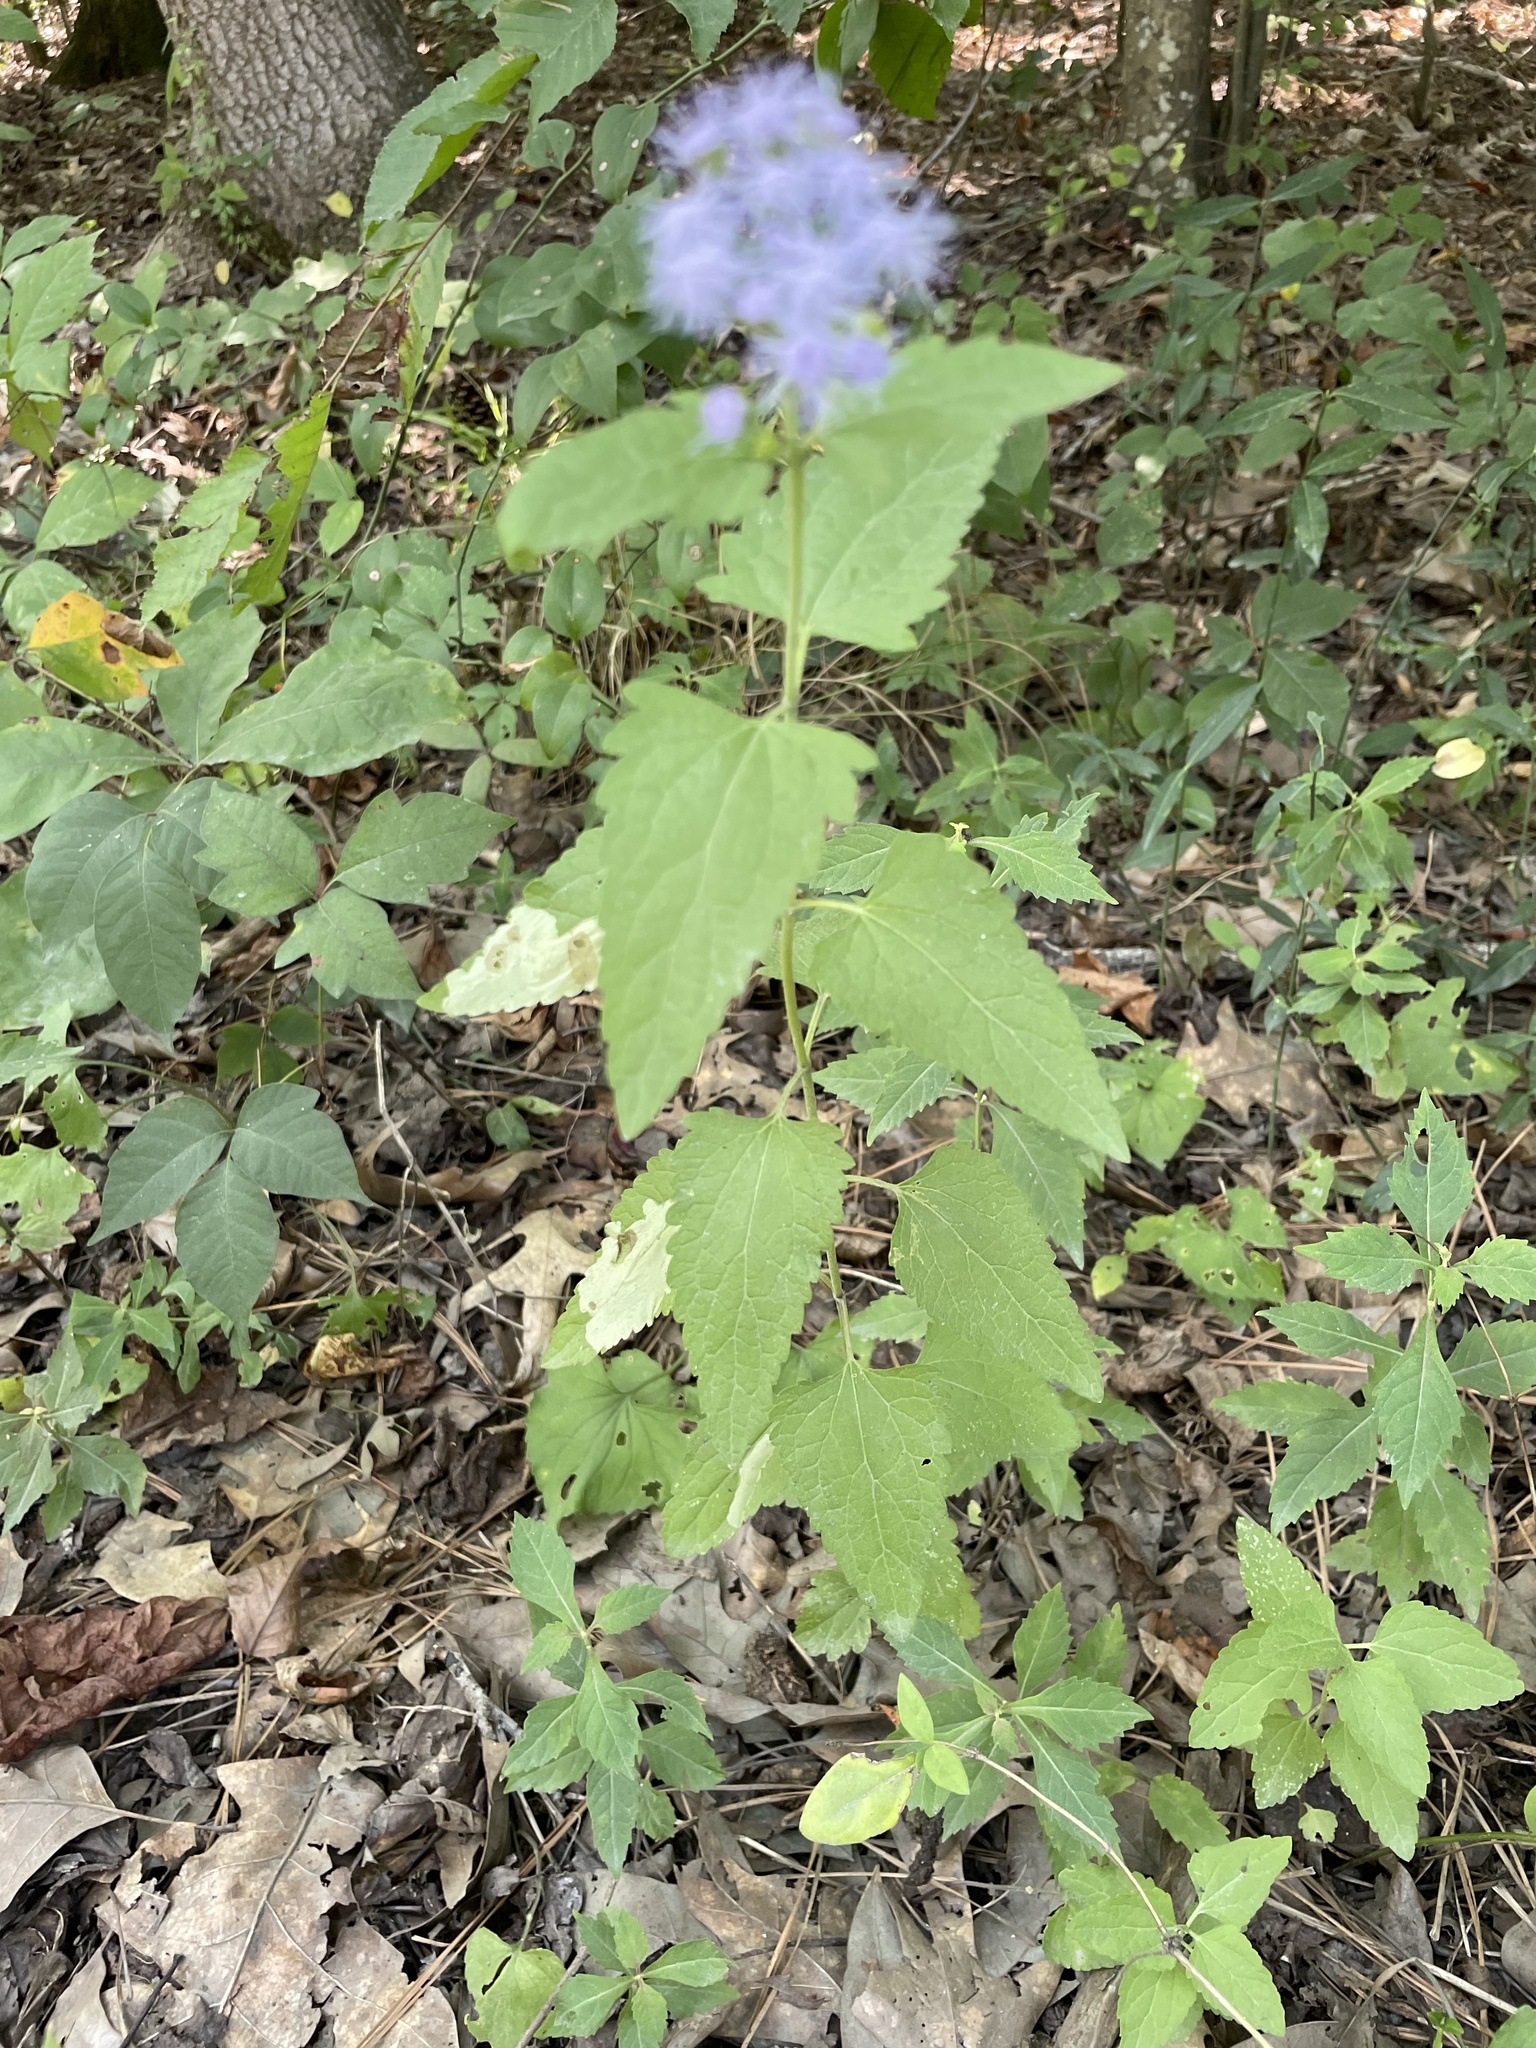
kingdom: Plantae
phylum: Tracheophyta
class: Magnoliopsida
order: Asterales
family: Asteraceae
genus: Conoclinium
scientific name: Conoclinium coelestinum
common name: Blue mistflower
